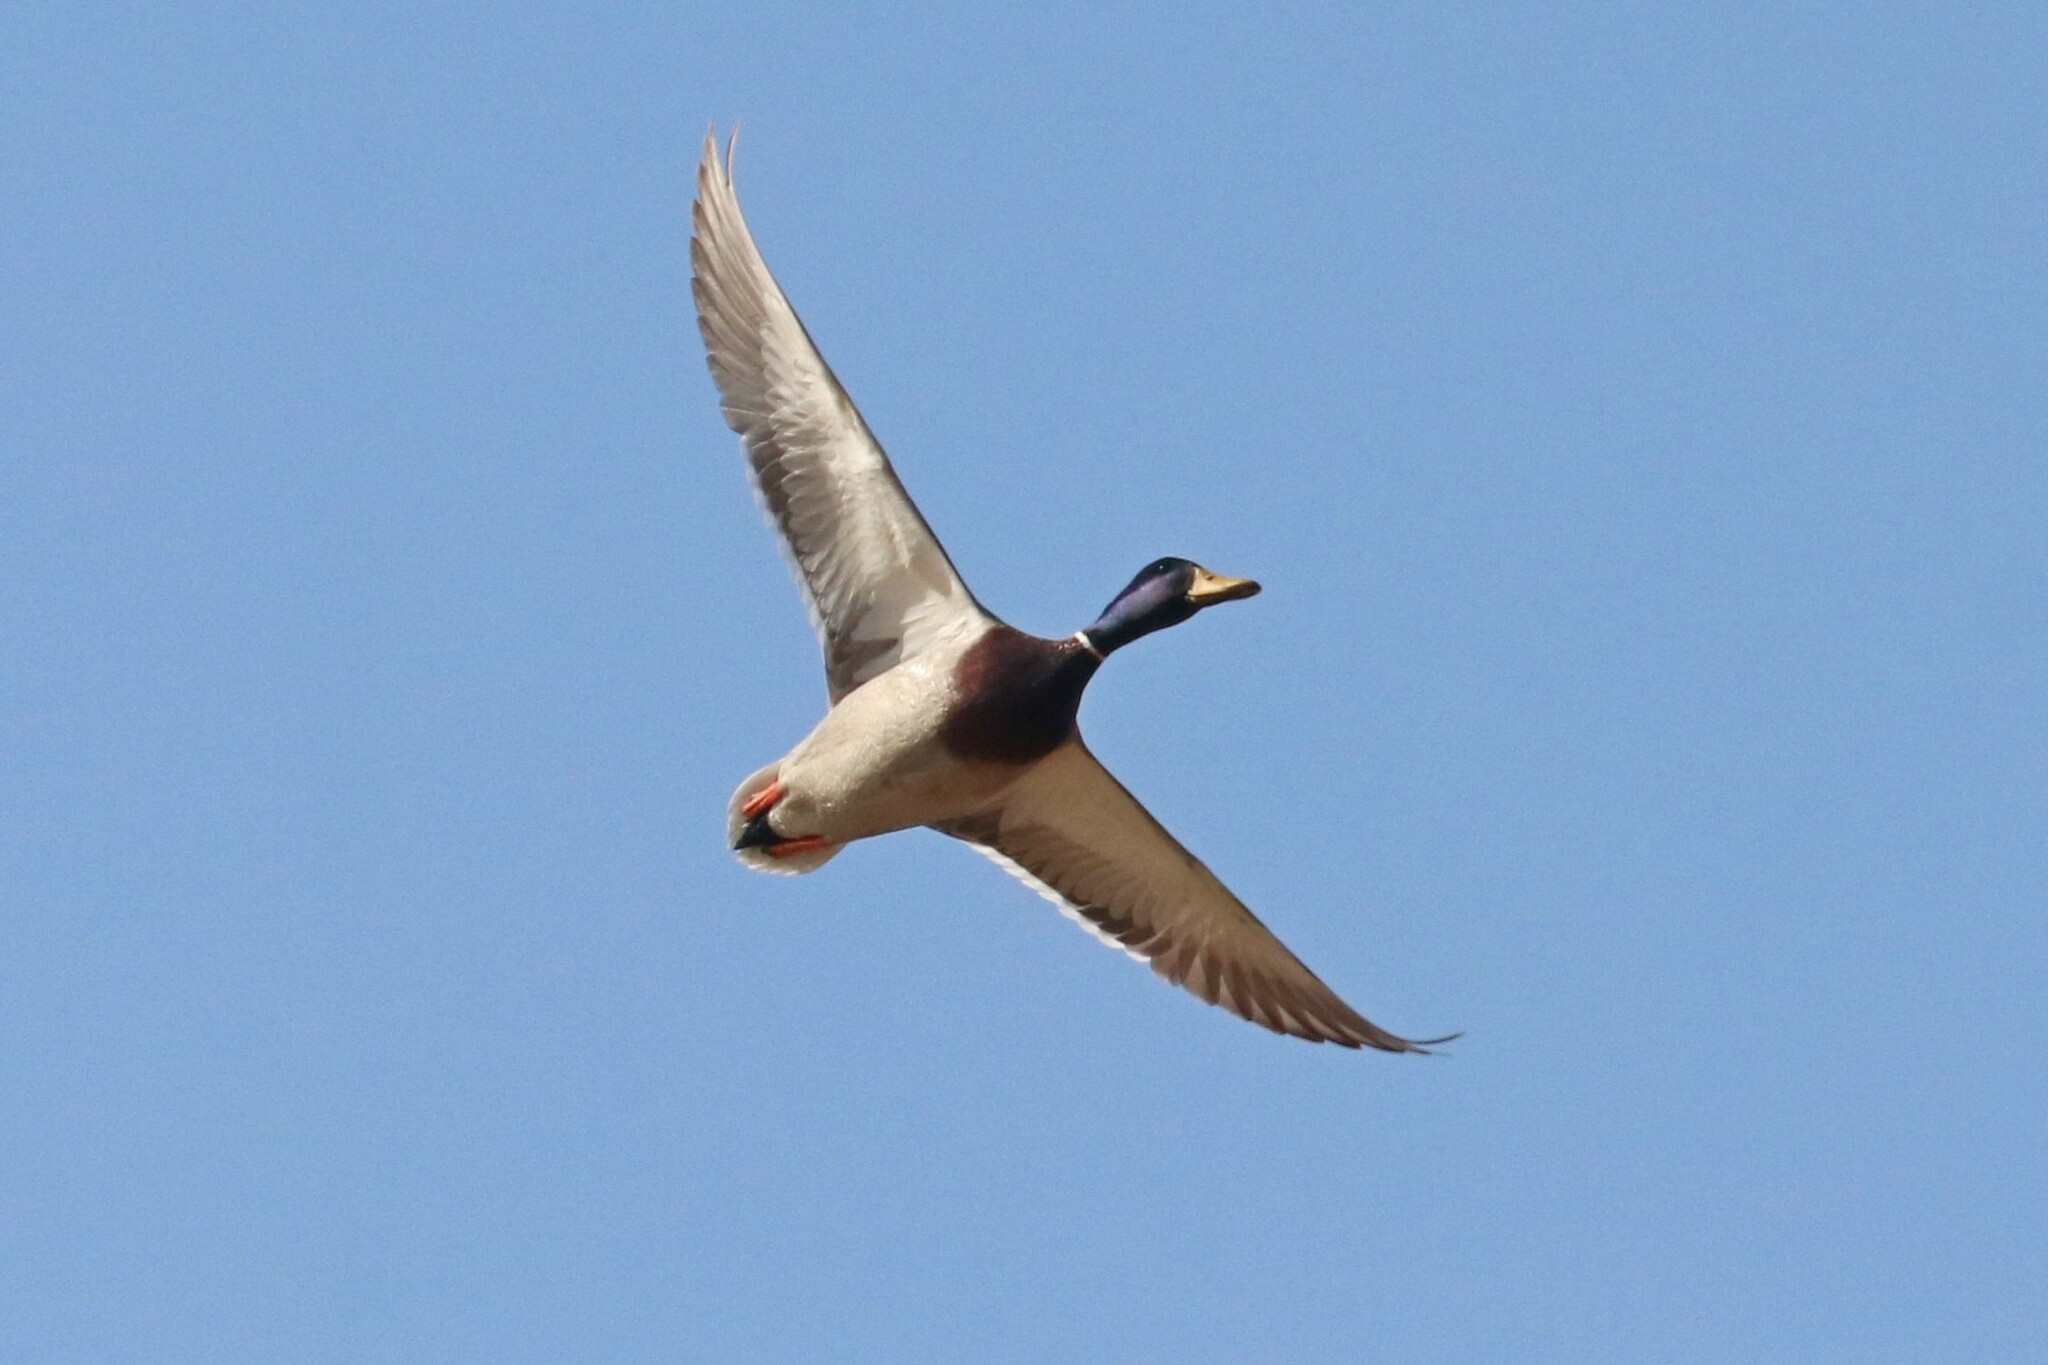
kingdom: Animalia
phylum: Chordata
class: Aves
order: Anseriformes
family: Anatidae
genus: Anas
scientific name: Anas platyrhynchos
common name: Mallard
